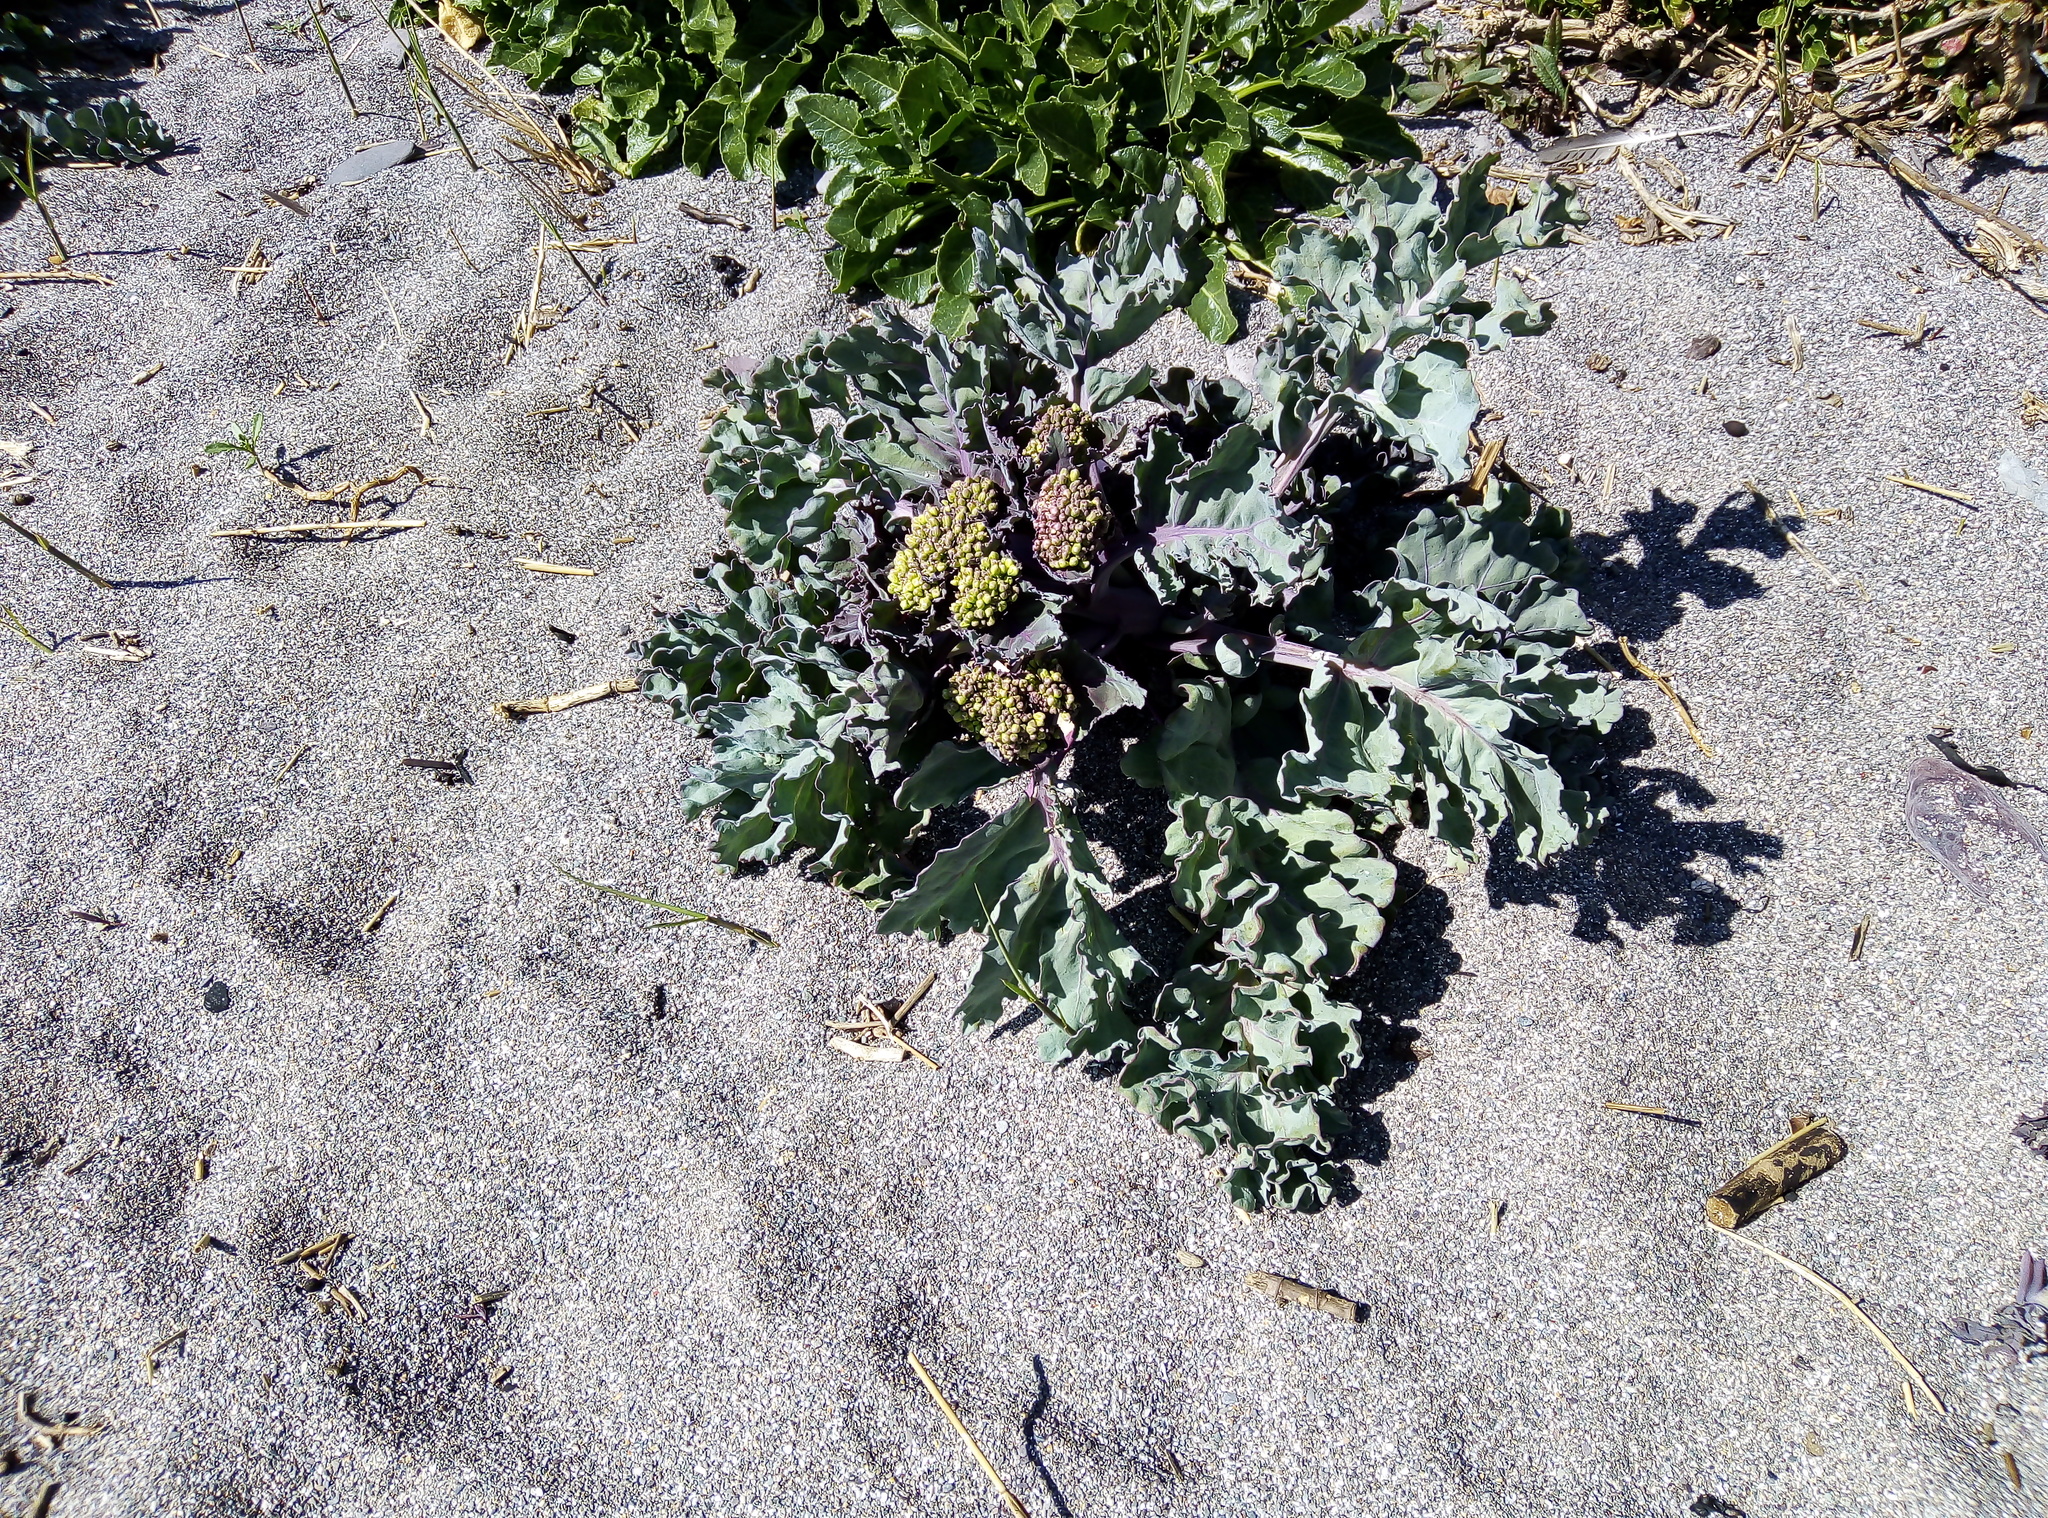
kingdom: Plantae
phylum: Tracheophyta
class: Magnoliopsida
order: Brassicales
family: Brassicaceae
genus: Crambe
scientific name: Crambe maritima
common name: Sea-kale
